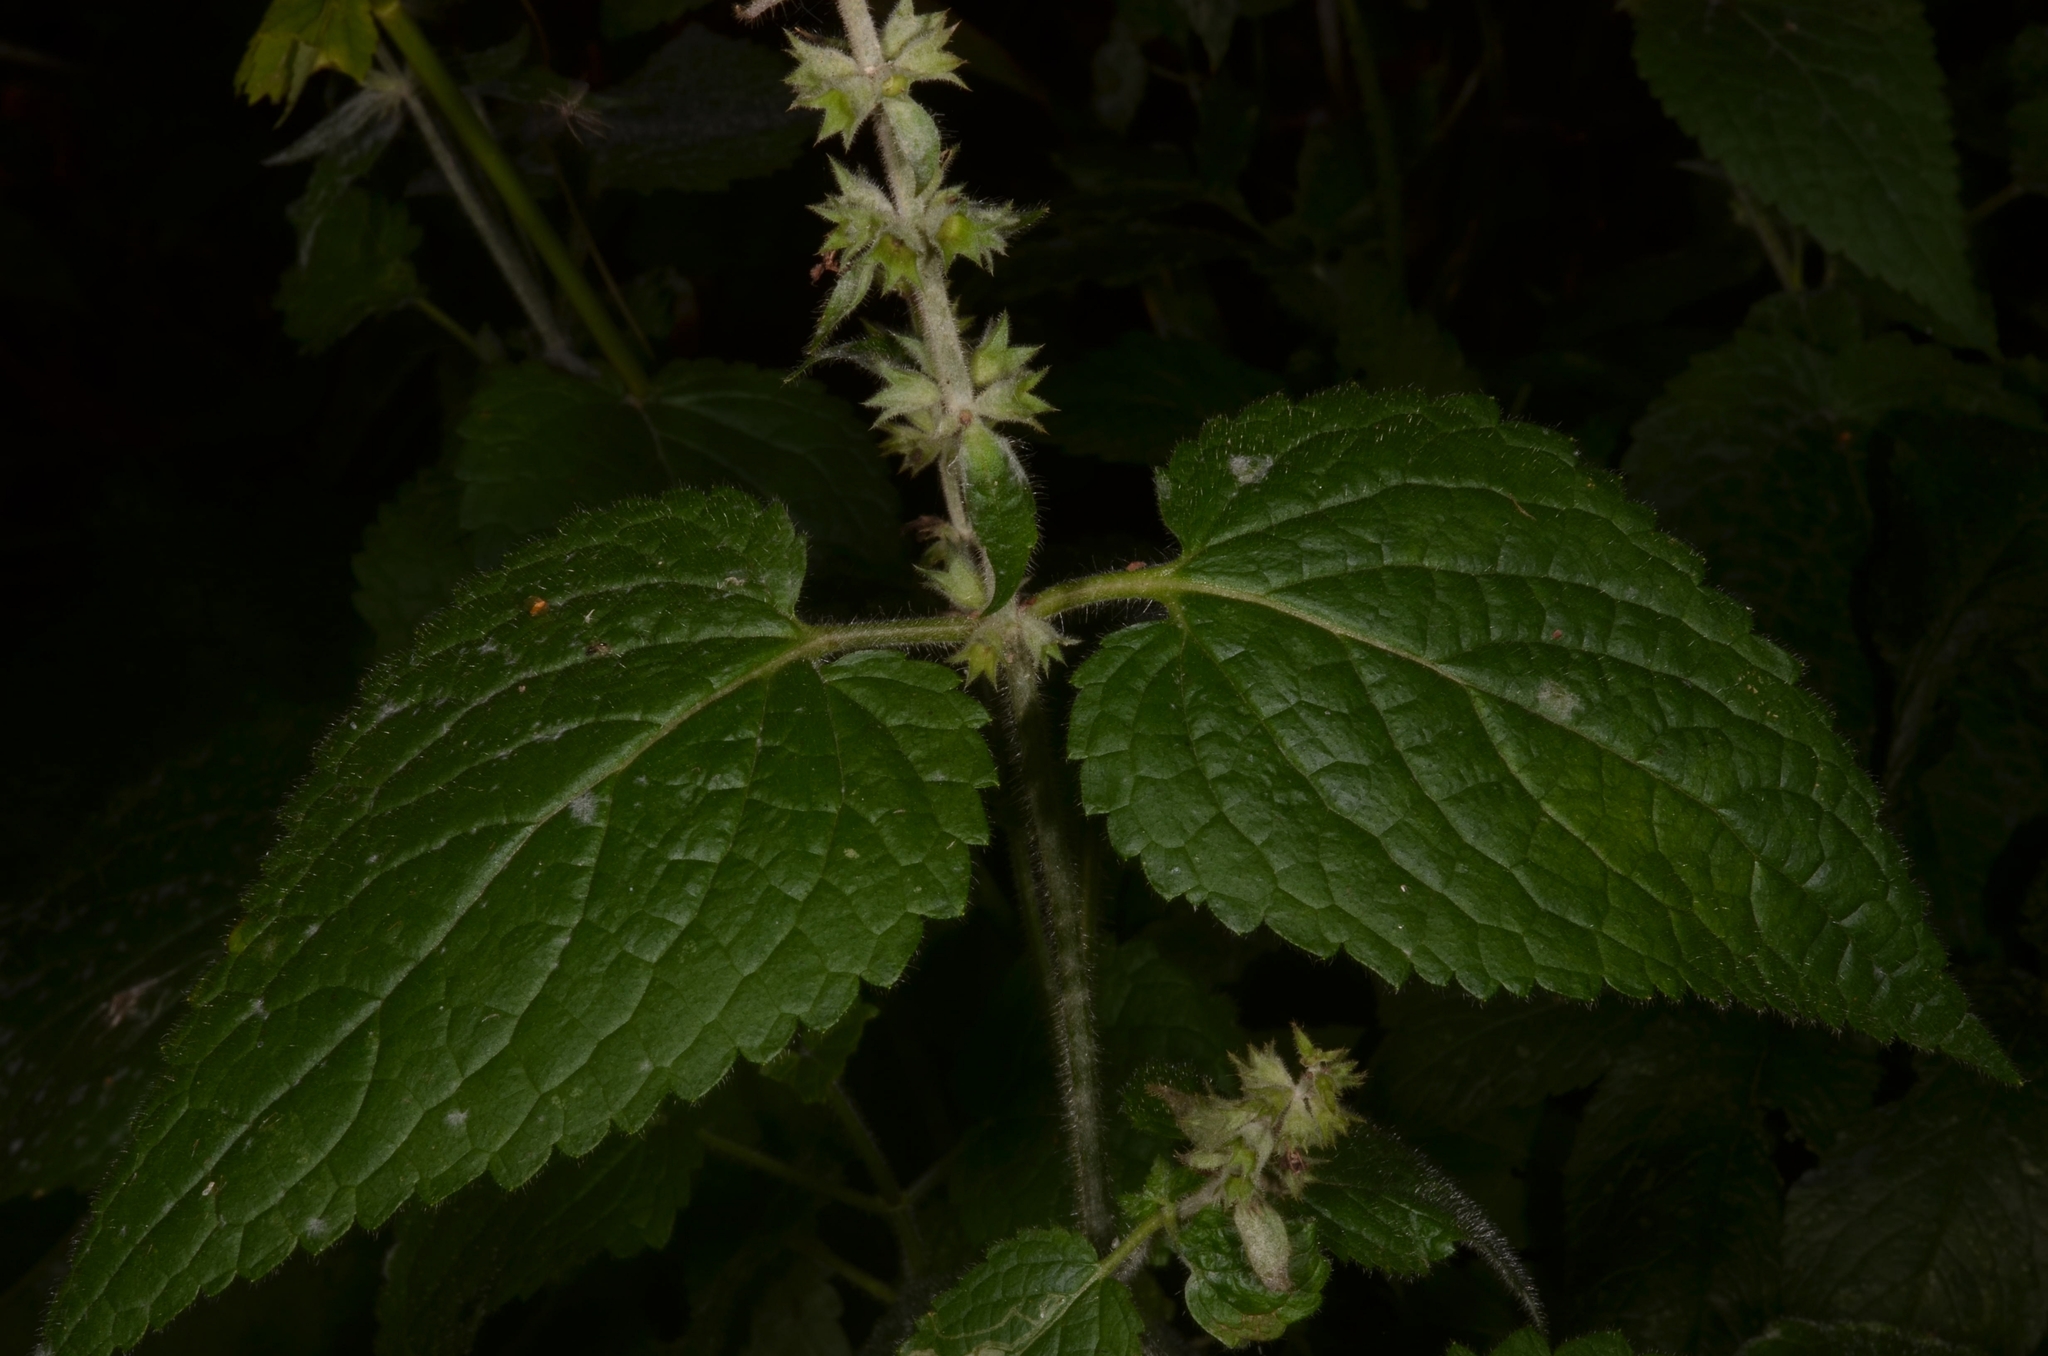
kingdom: Plantae
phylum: Tracheophyta
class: Magnoliopsida
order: Lamiales
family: Lamiaceae
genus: Stachys
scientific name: Stachys sylvatica
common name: Hedge woundwort
